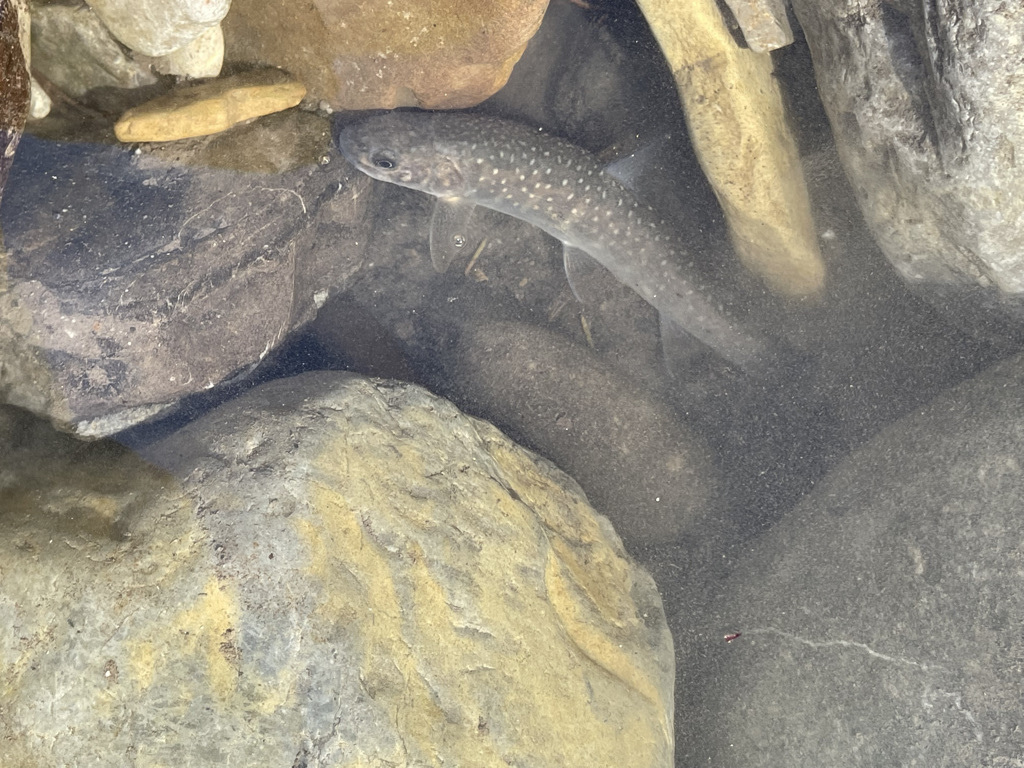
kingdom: Animalia
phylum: Chordata
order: Salmoniformes
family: Salmonidae
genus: Salvelinus
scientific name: Salvelinus confluentus
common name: Bull trout
